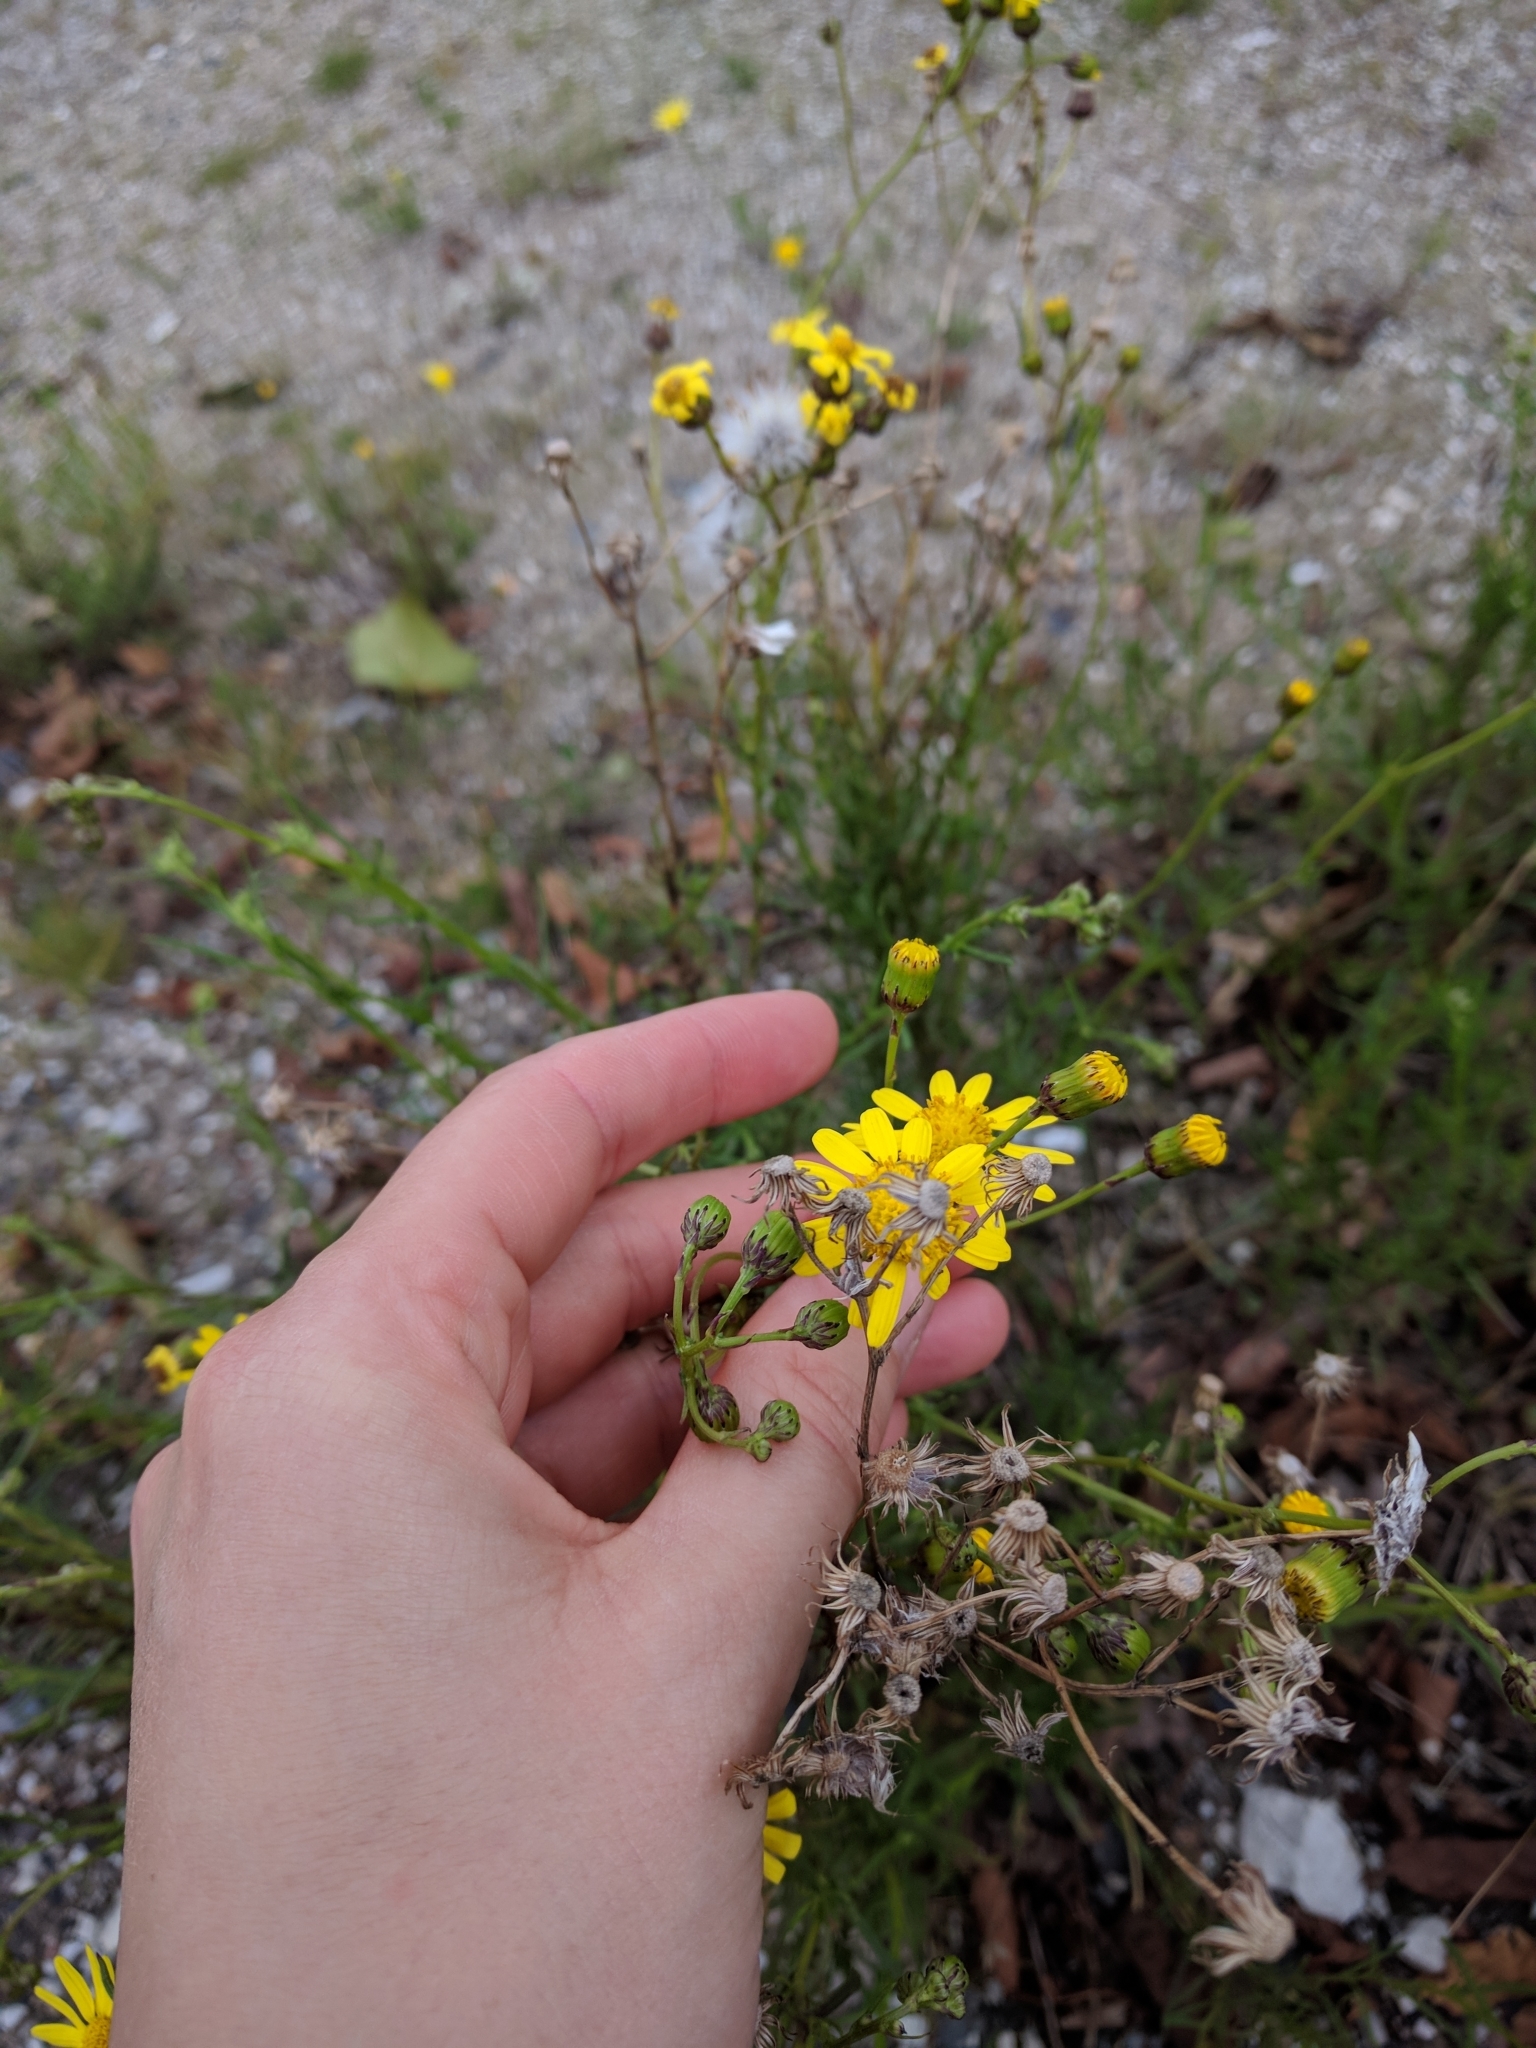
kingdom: Plantae
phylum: Tracheophyta
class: Magnoliopsida
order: Asterales
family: Asteraceae
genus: Senecio
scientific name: Senecio inaequidens
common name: Narrow-leaved ragwort
